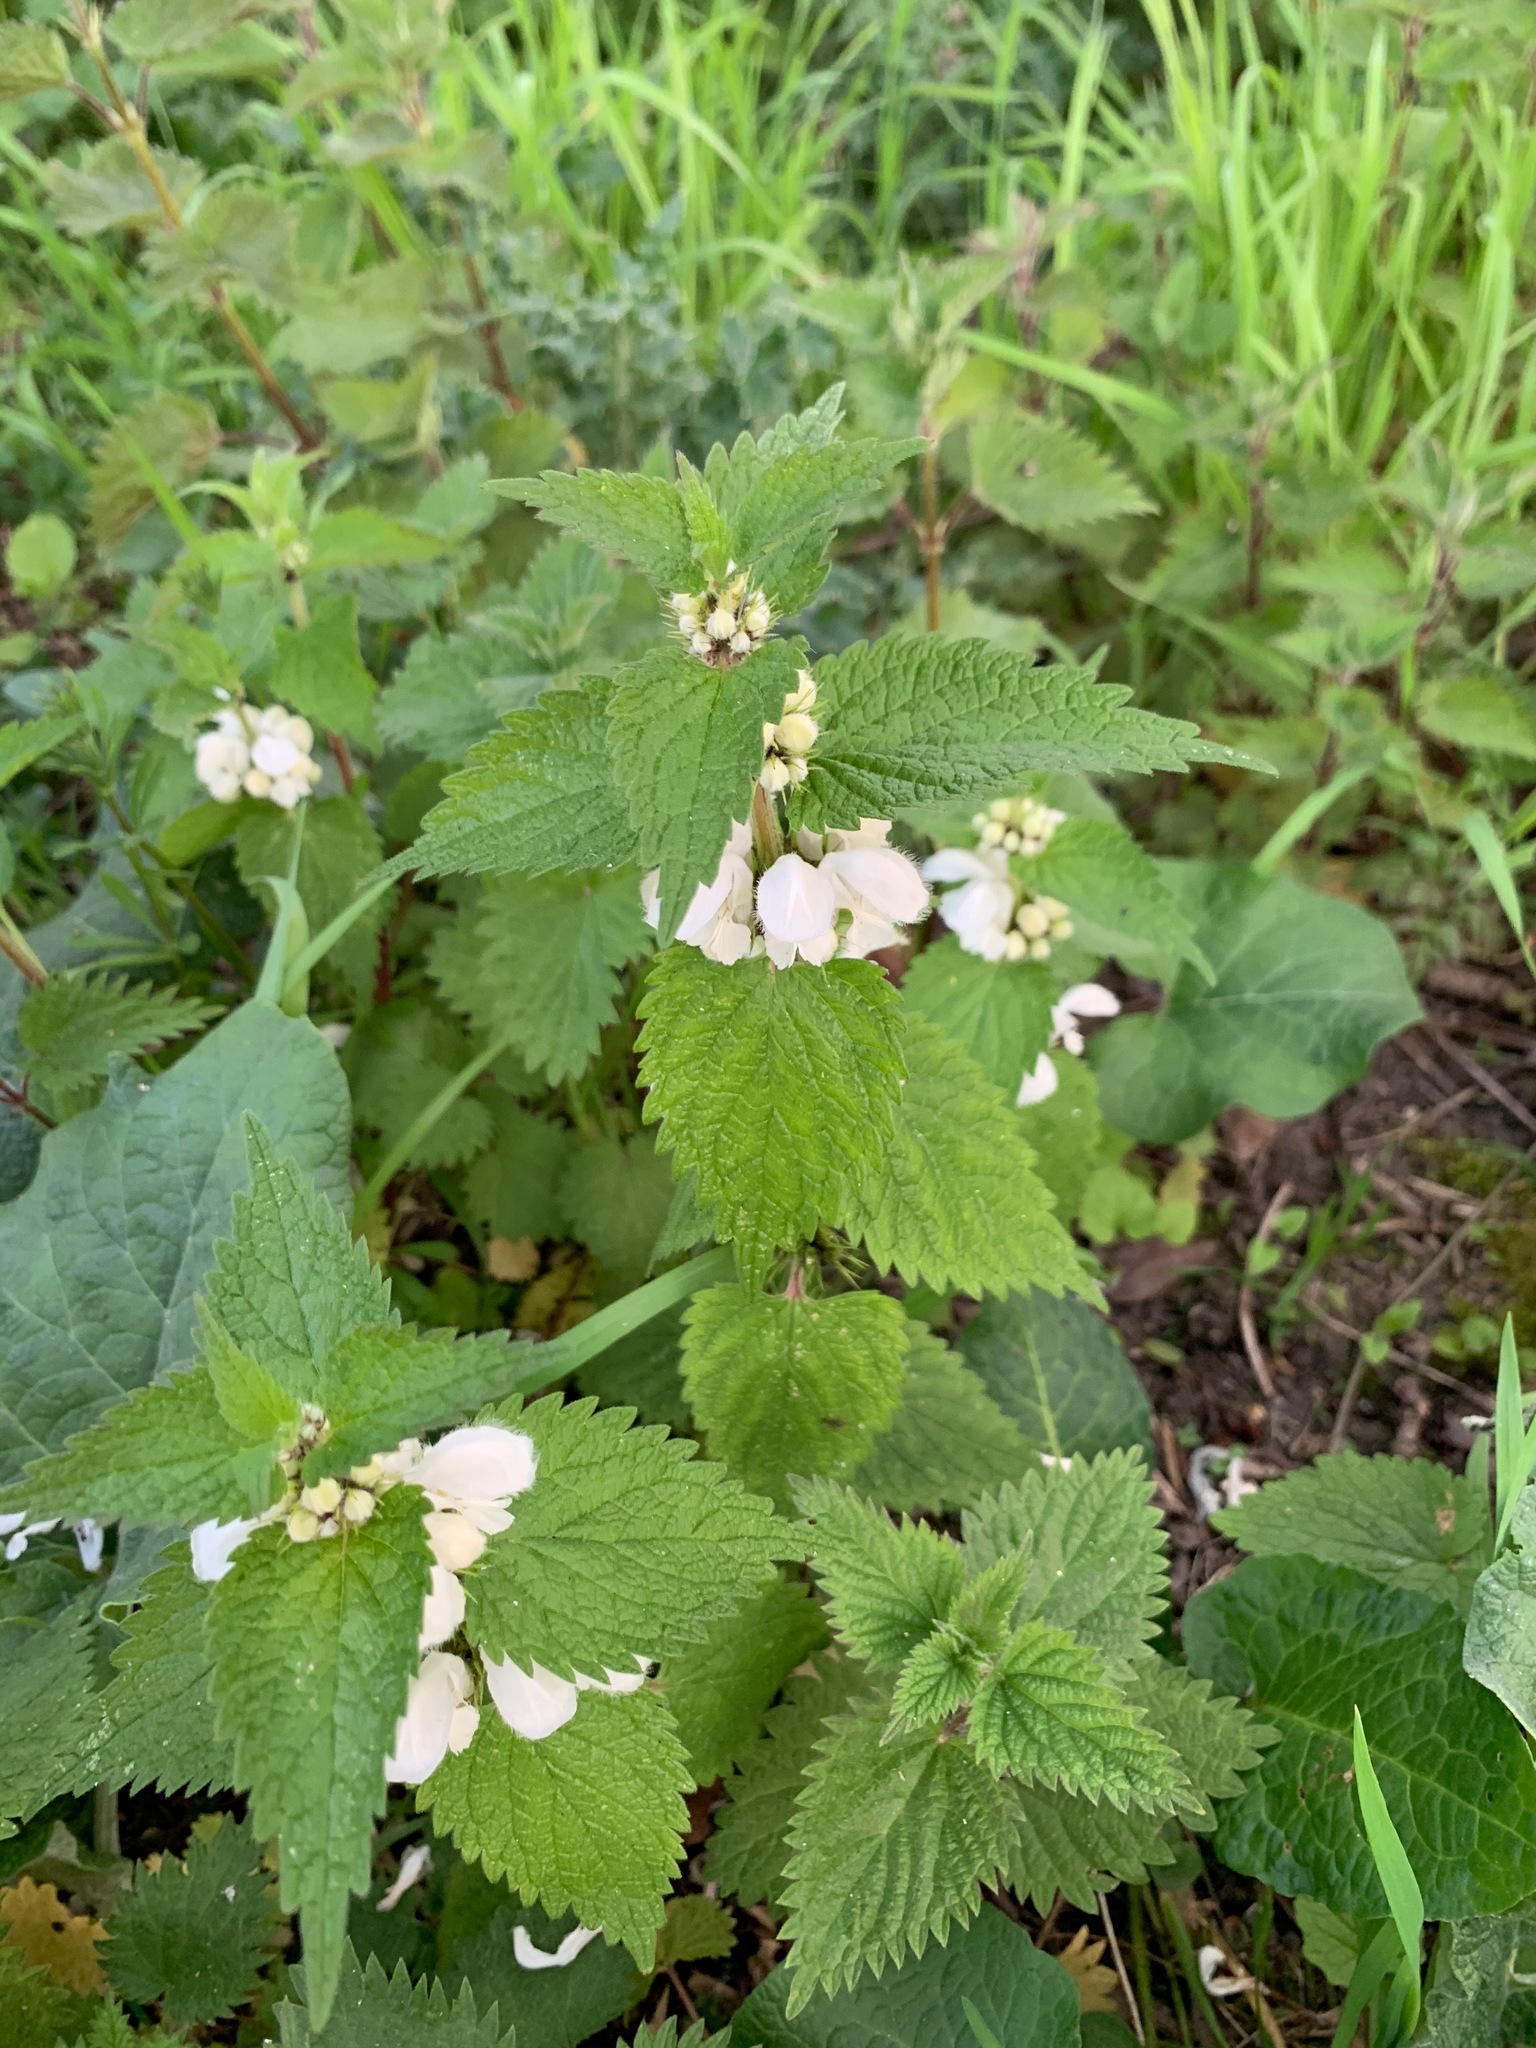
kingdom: Plantae
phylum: Tracheophyta
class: Magnoliopsida
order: Lamiales
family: Lamiaceae
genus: Lamium
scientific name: Lamium album
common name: White dead-nettle
